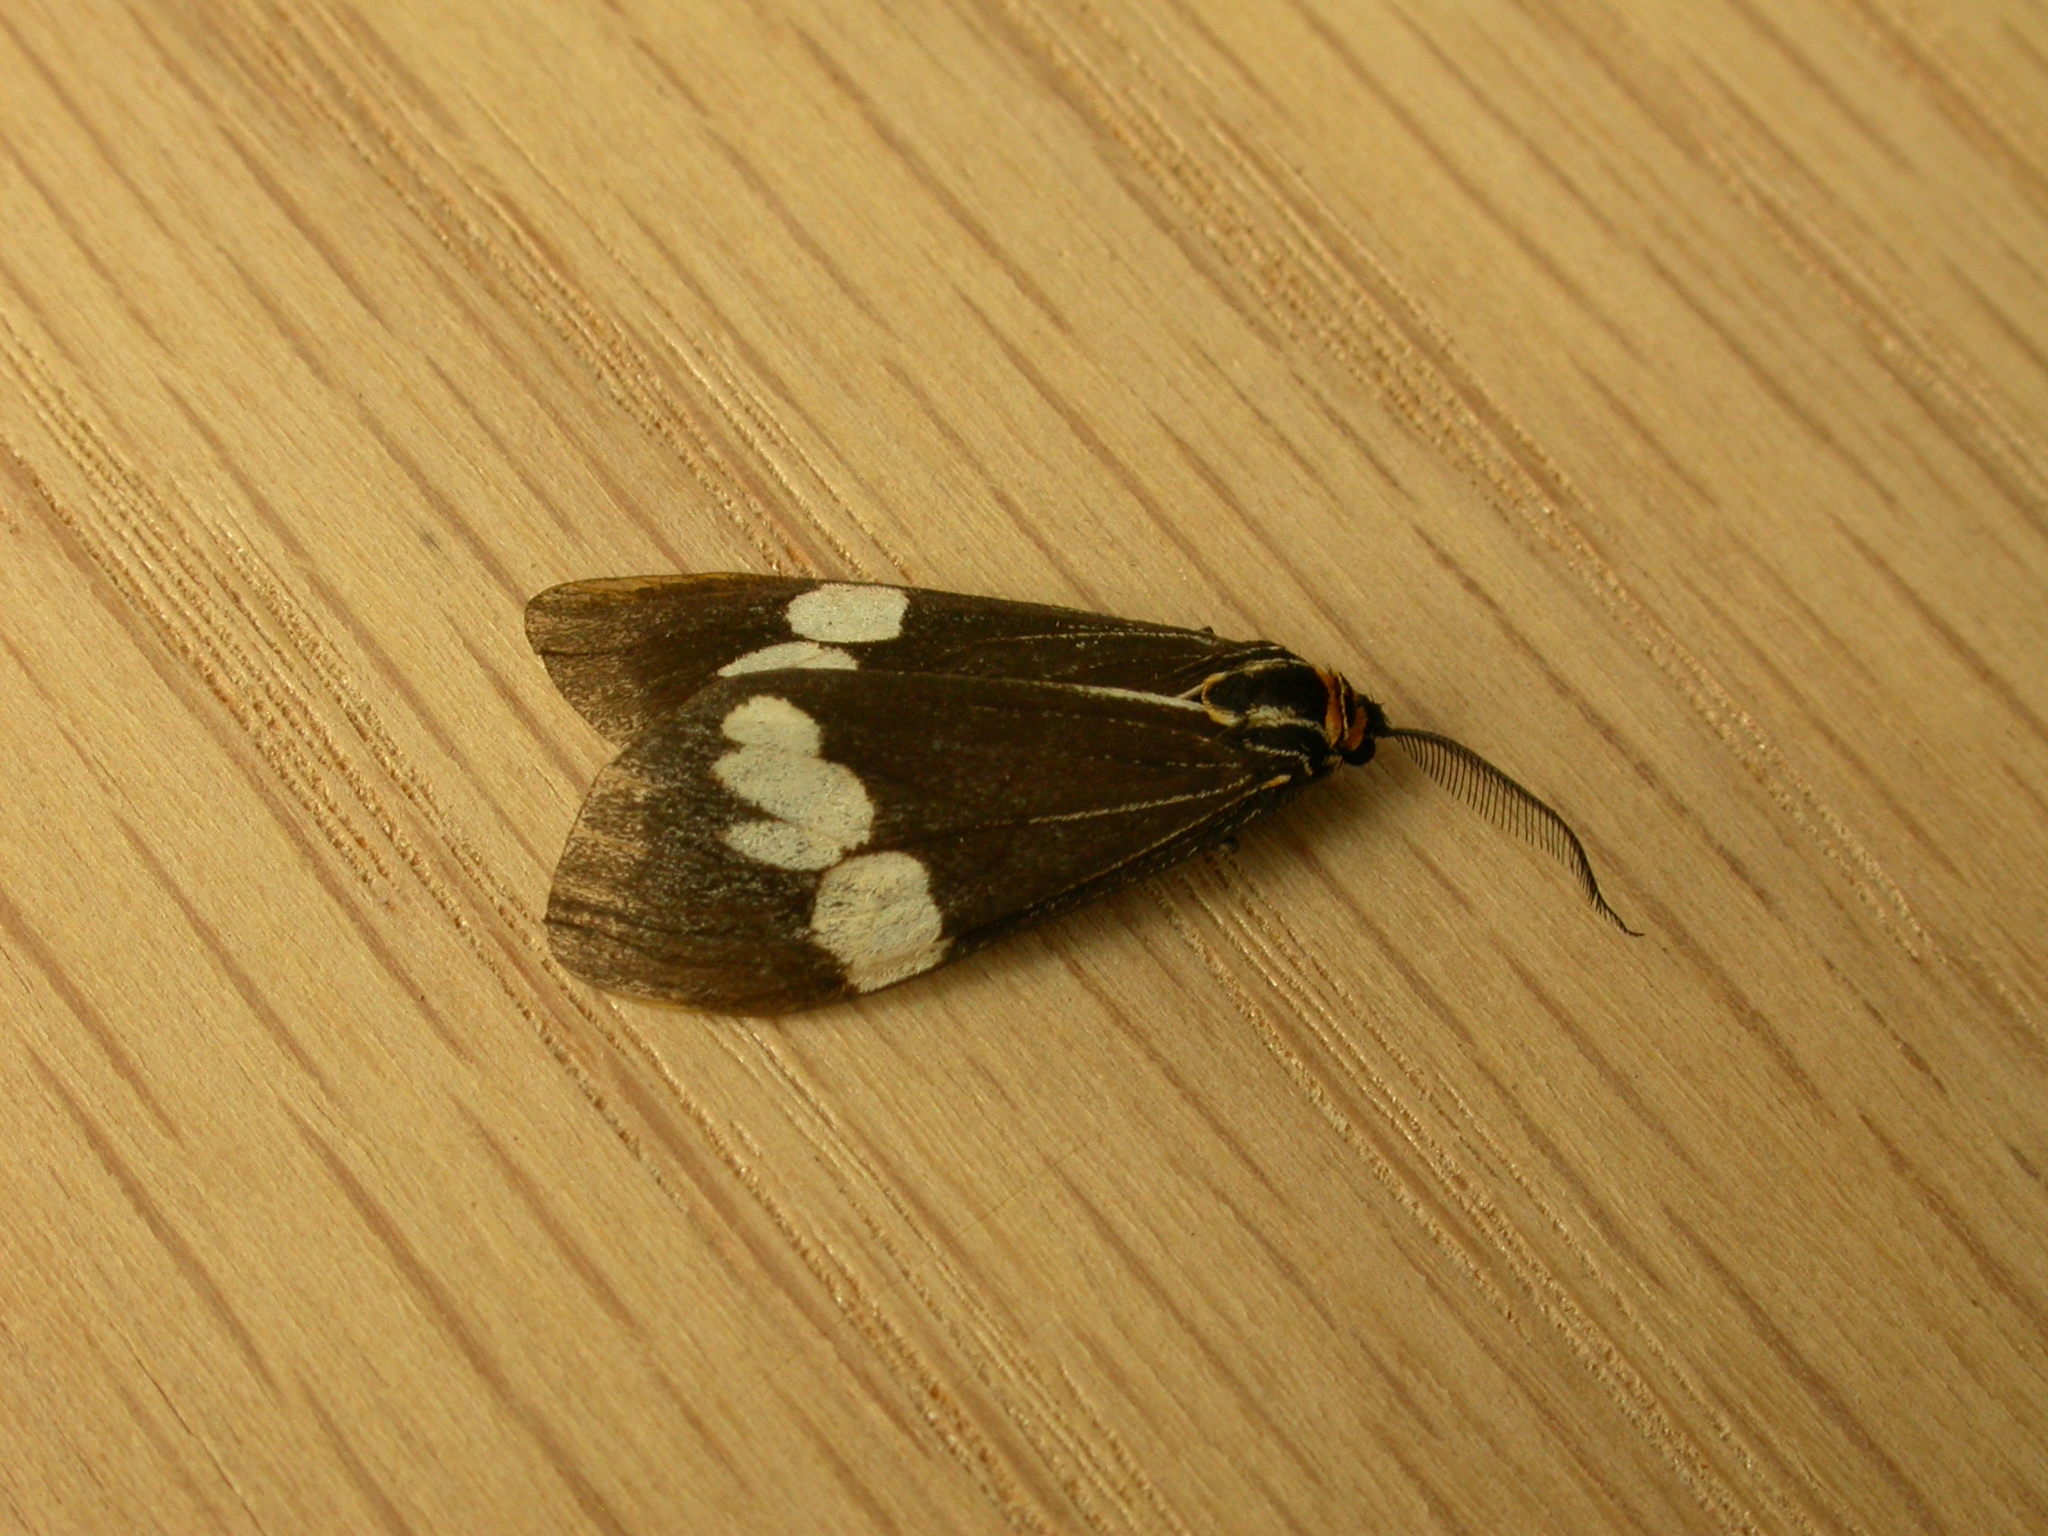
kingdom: Animalia
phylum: Arthropoda
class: Insecta
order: Lepidoptera
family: Erebidae
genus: Nyctemera
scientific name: Nyctemera amicus
